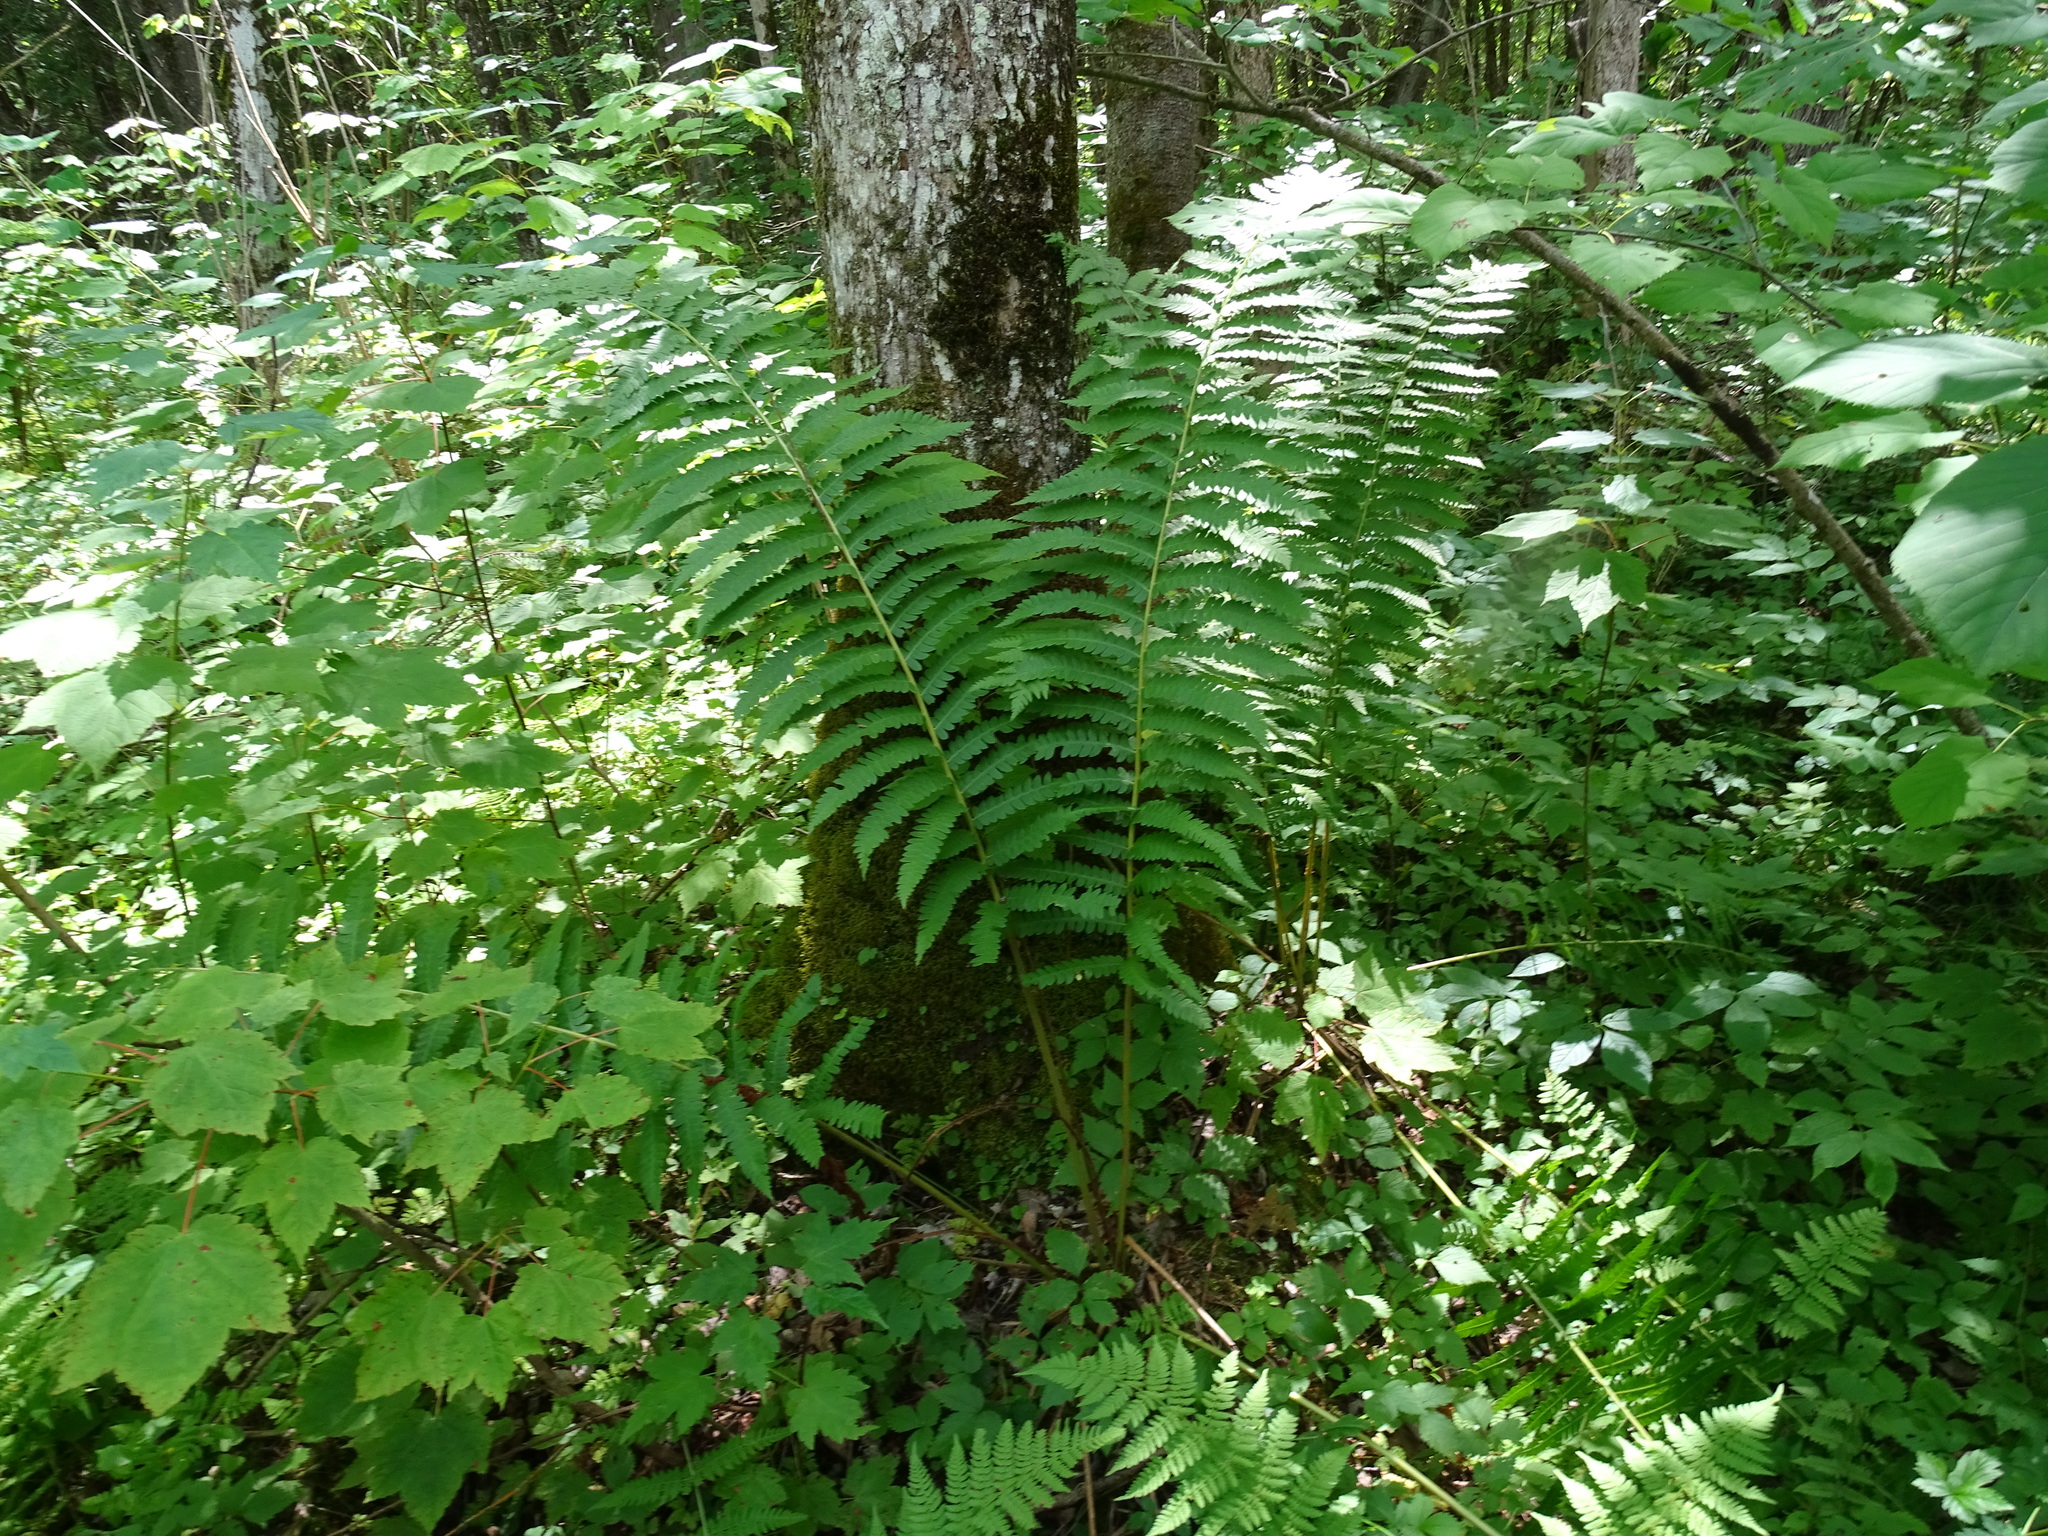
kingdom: Plantae
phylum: Tracheophyta
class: Polypodiopsida
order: Osmundales
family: Osmundaceae
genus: Osmundastrum
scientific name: Osmundastrum cinnamomeum
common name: Cinnamon fern
